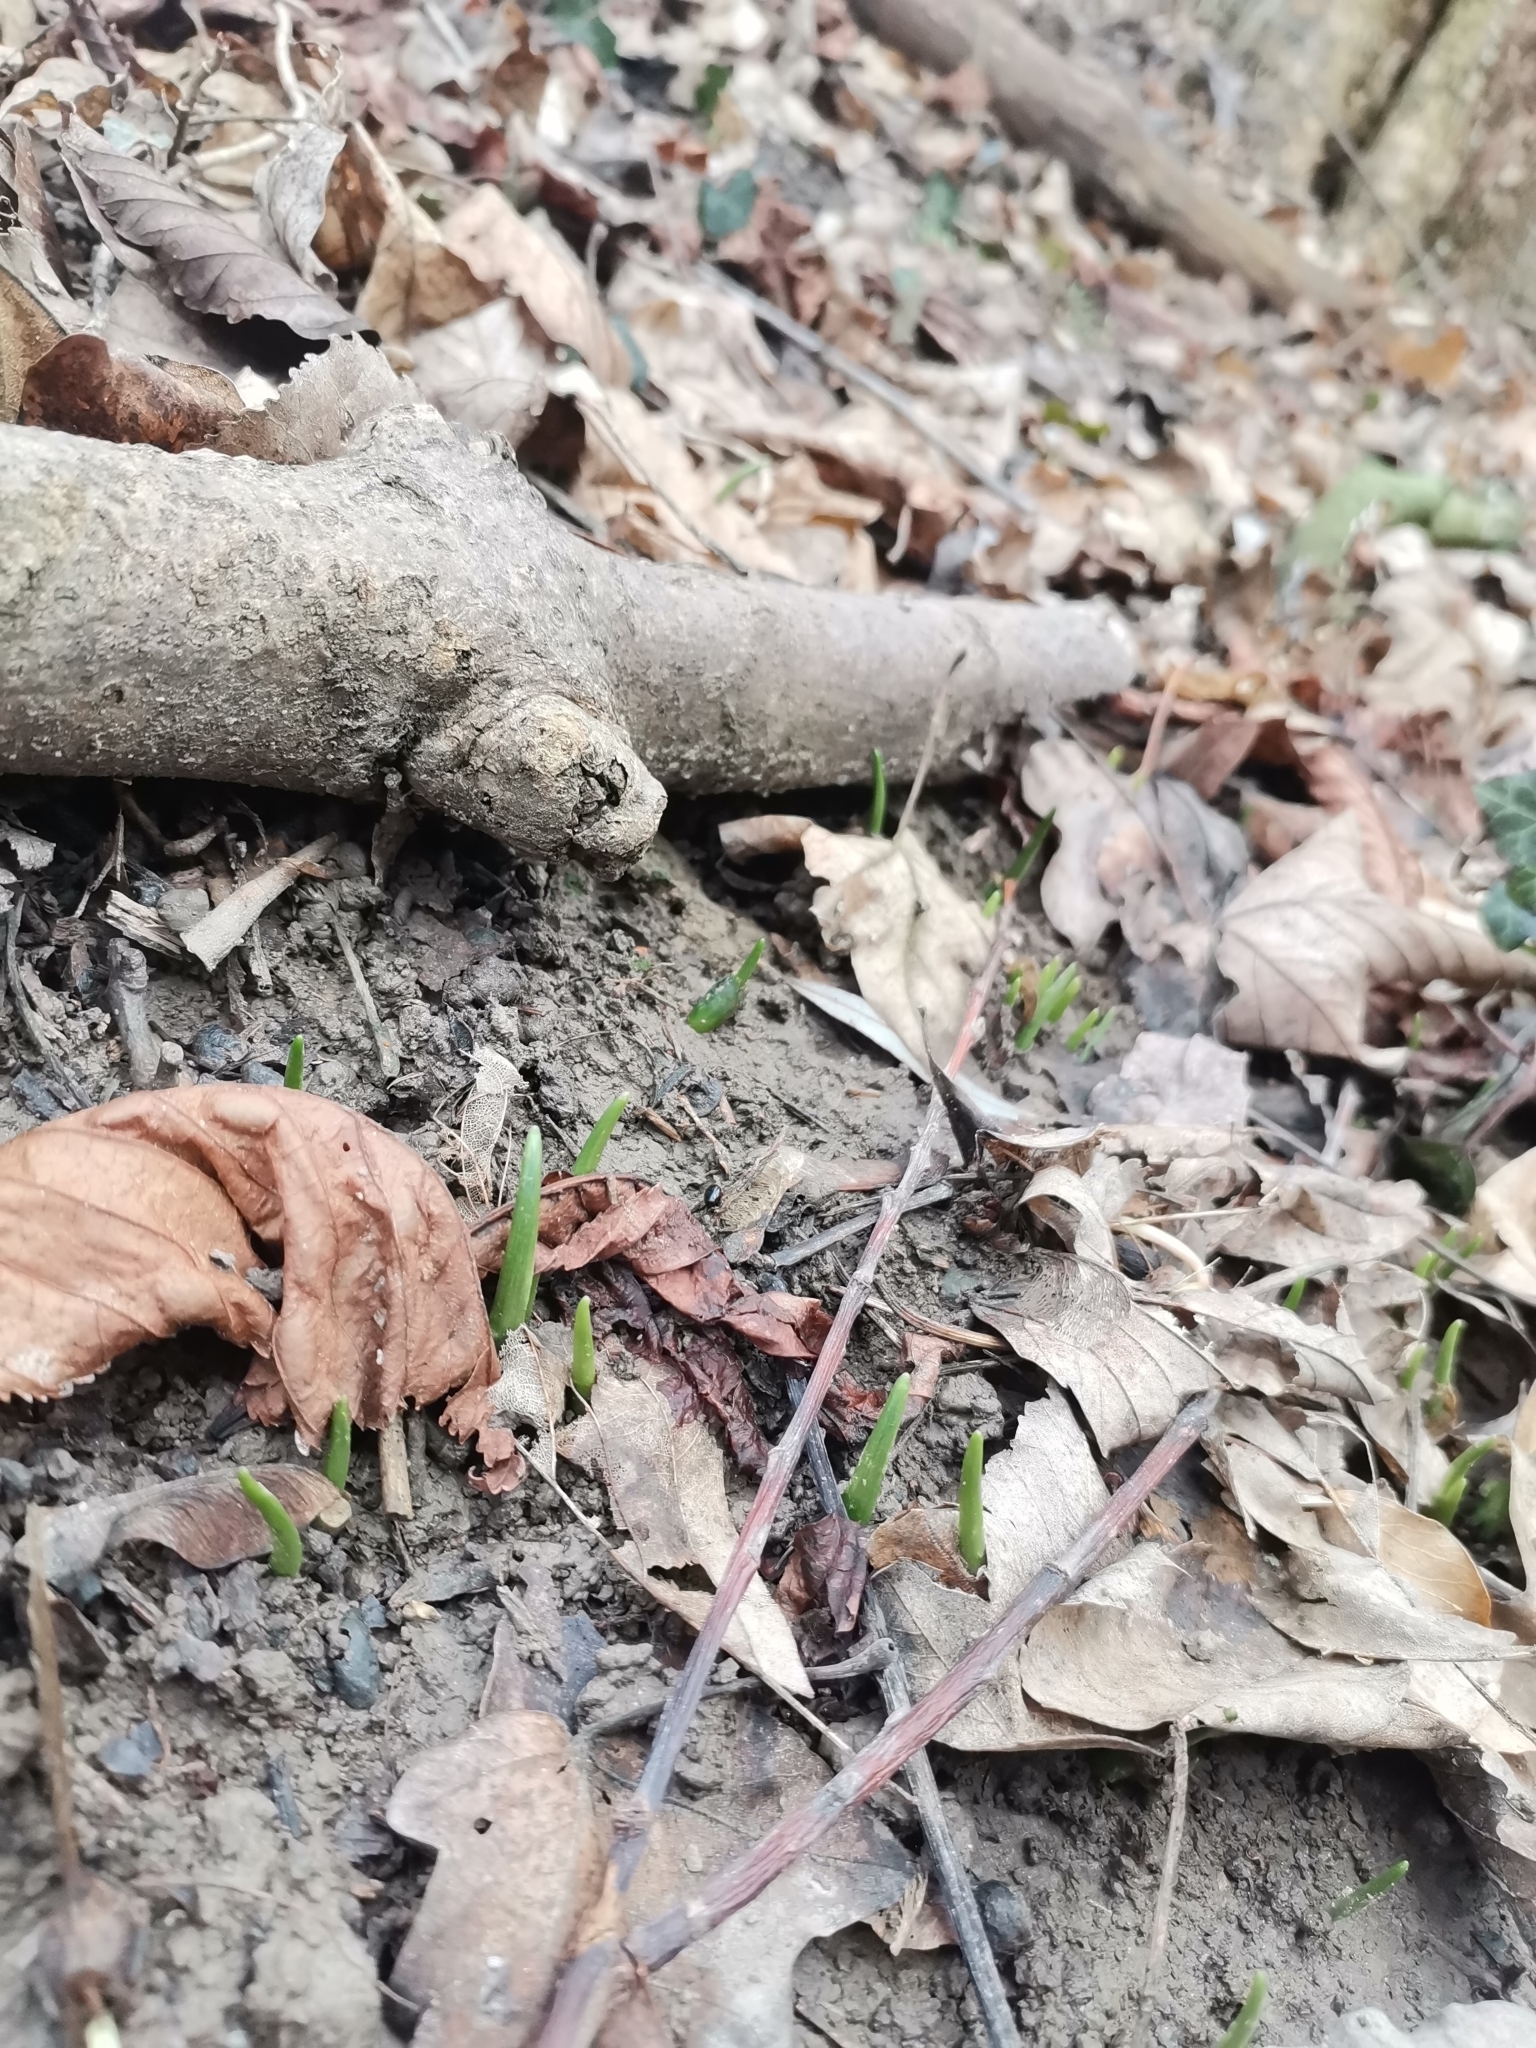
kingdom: Plantae
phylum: Tracheophyta
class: Liliopsida
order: Asparagales
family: Amaryllidaceae
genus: Allium
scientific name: Allium ursinum
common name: Ramsons
